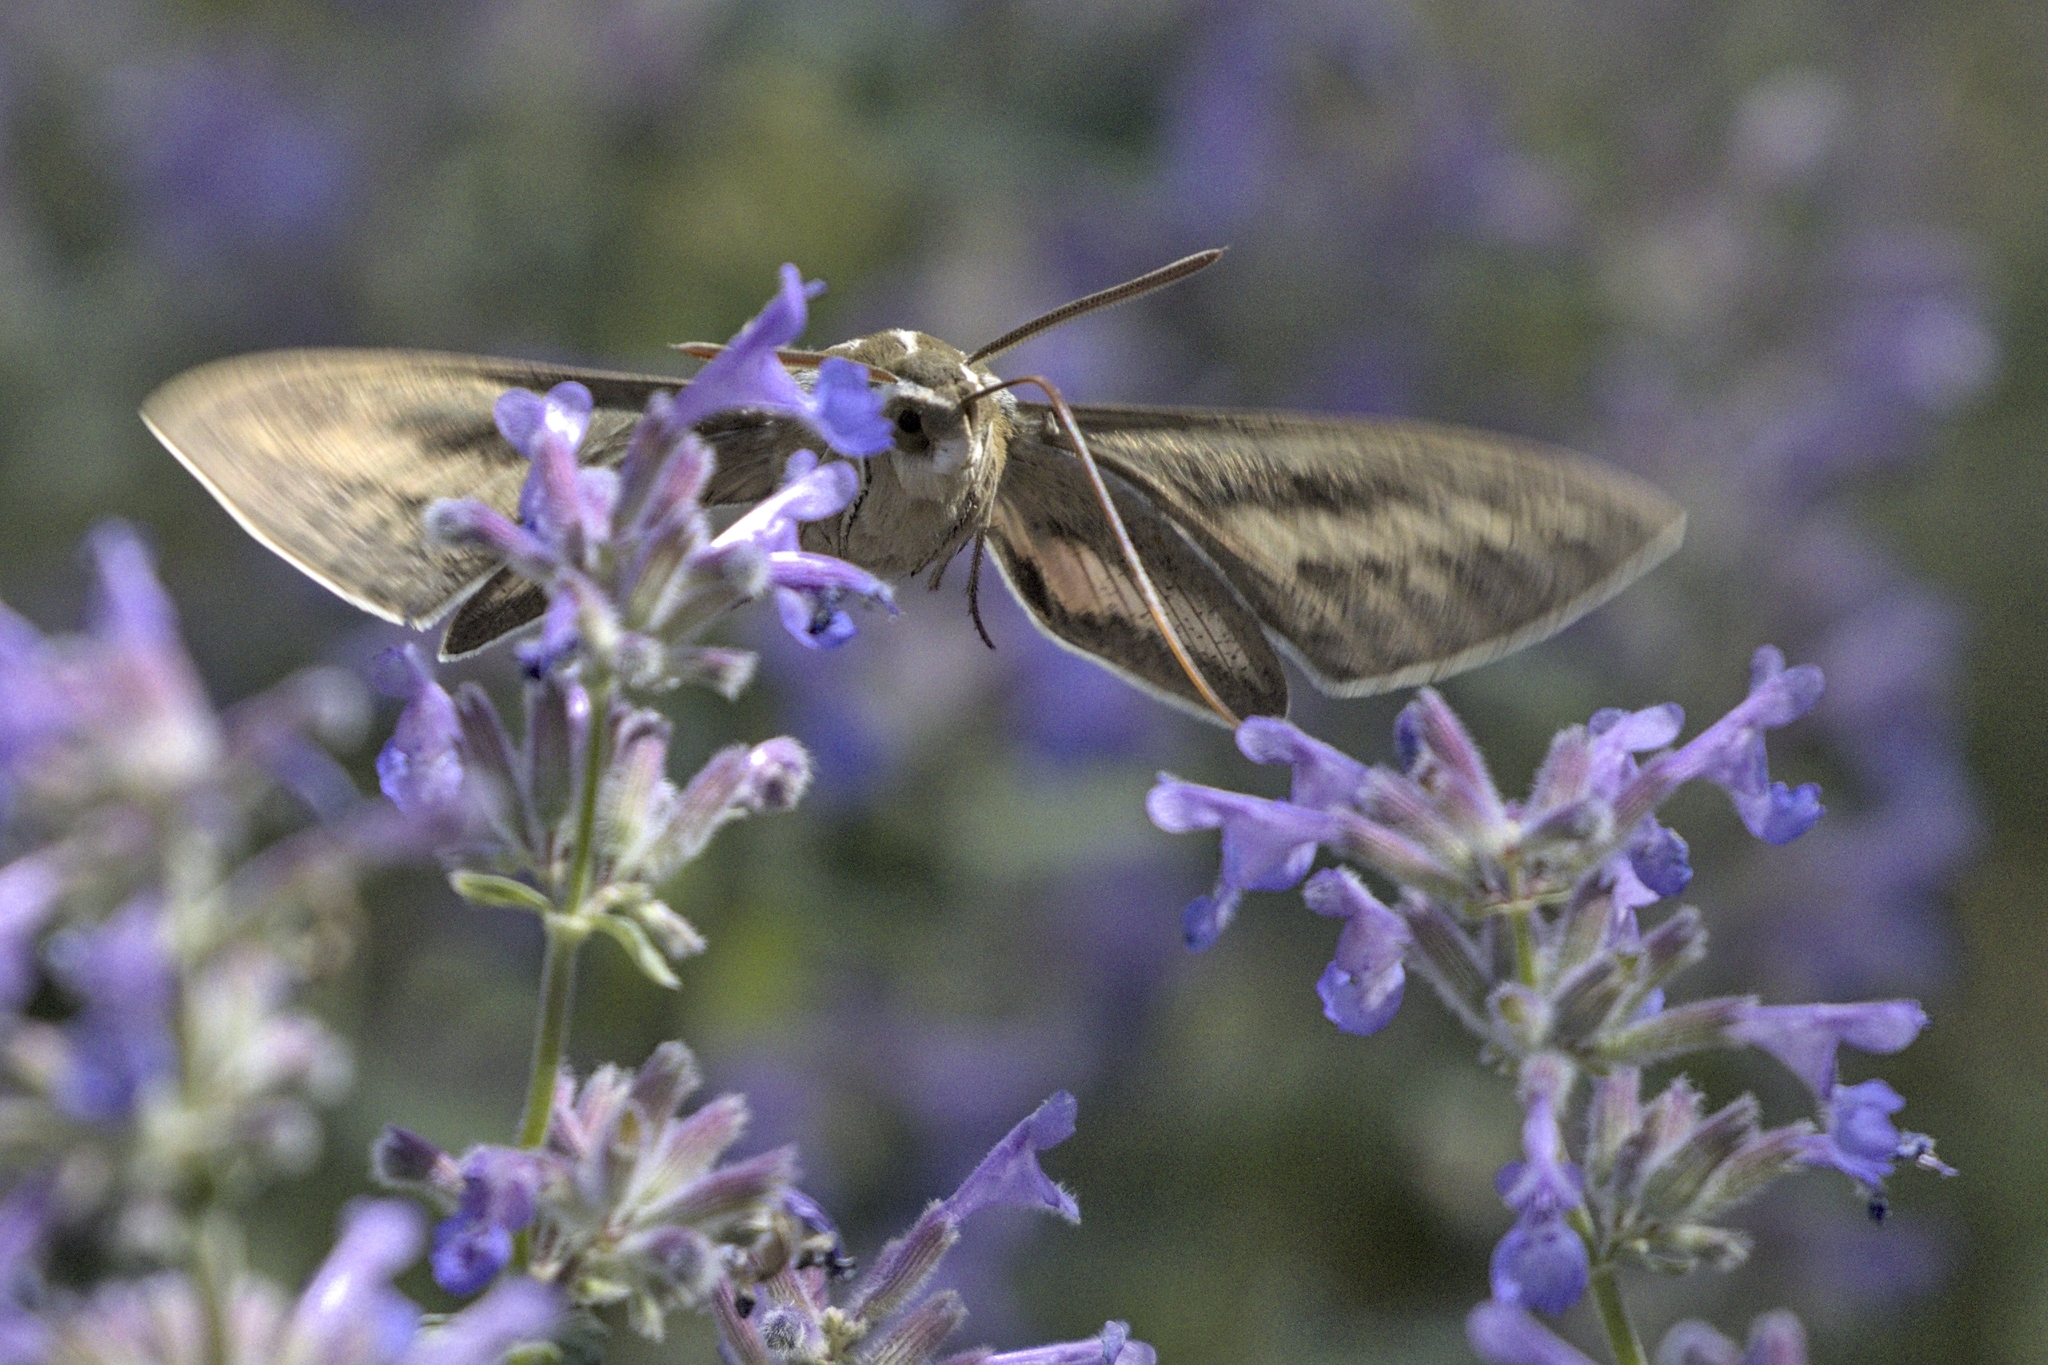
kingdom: Animalia
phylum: Arthropoda
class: Insecta
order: Lepidoptera
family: Sphingidae
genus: Hyles
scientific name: Hyles lineata
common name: White-lined sphinx
